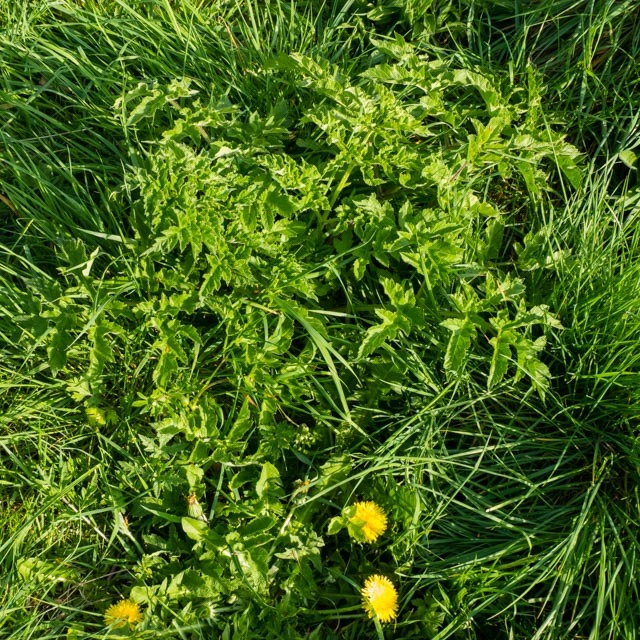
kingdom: Plantae
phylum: Tracheophyta
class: Magnoliopsida
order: Apiales
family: Apiaceae
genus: Heracleum
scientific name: Heracleum sphondylium
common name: Hogweed
